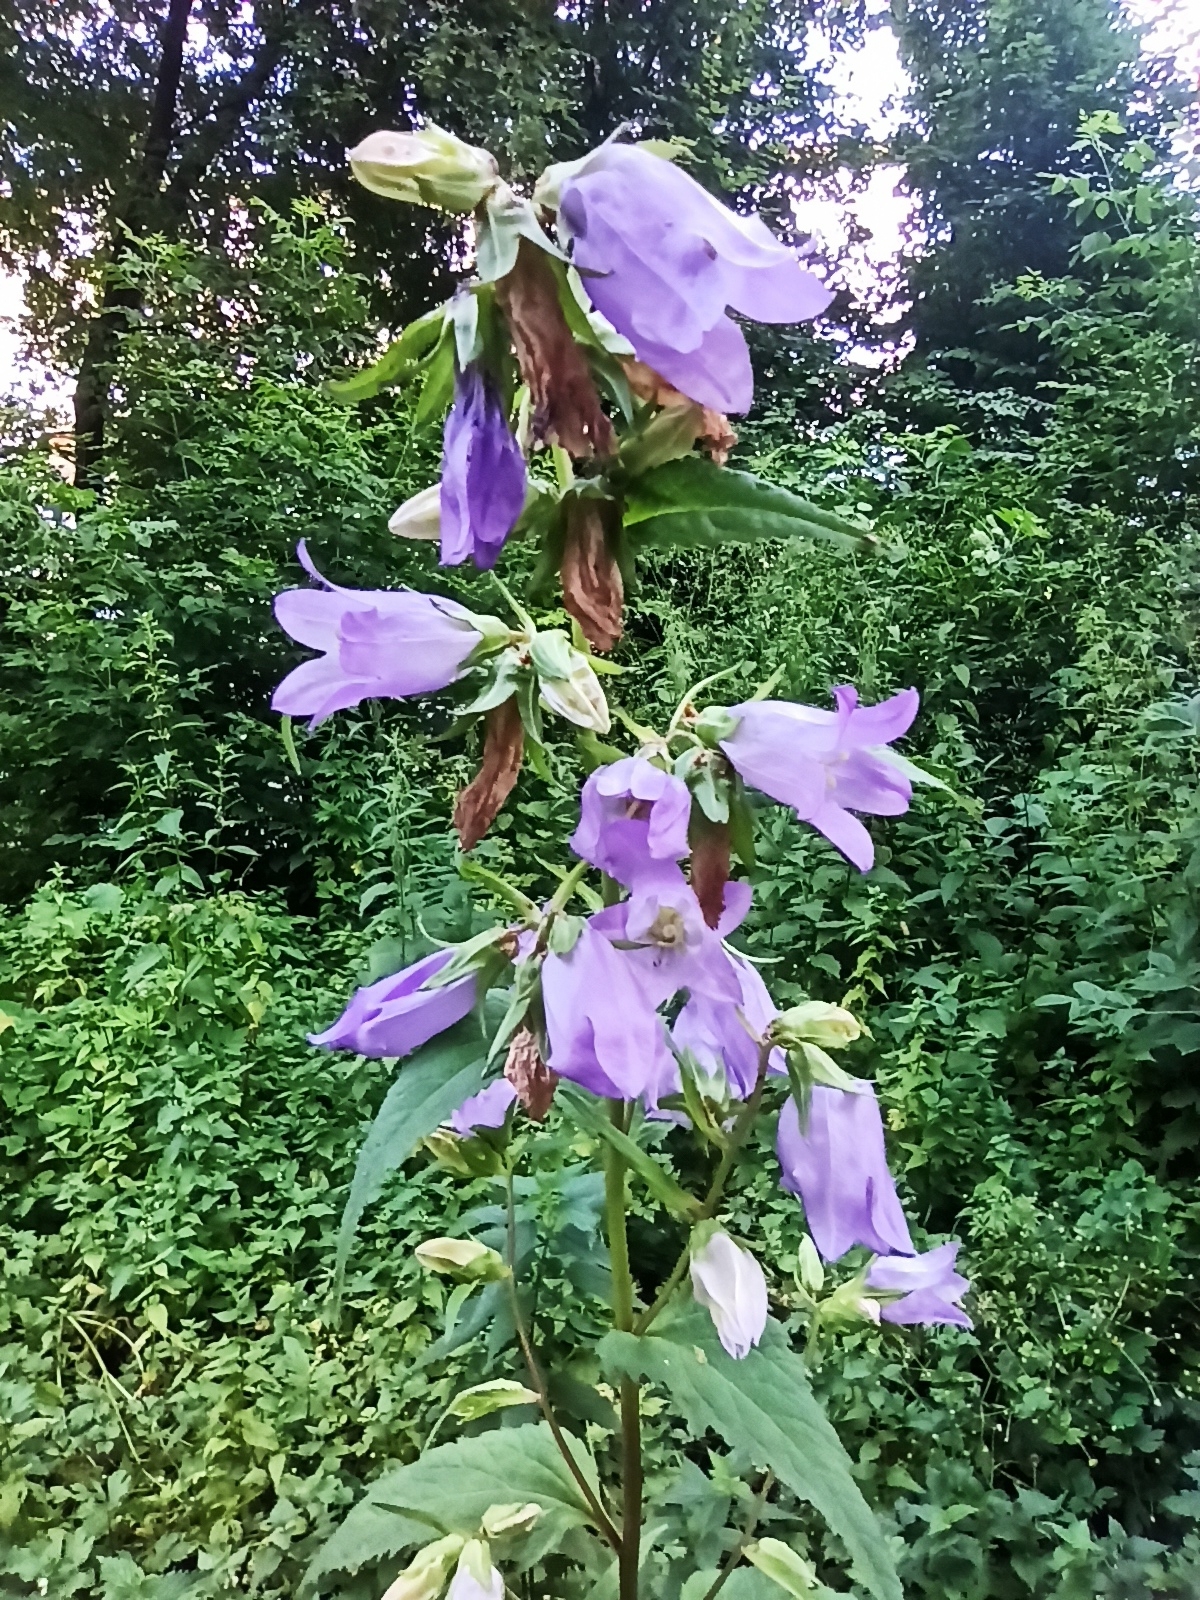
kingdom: Plantae
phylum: Tracheophyta
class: Magnoliopsida
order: Asterales
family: Campanulaceae
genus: Campanula
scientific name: Campanula trachelium
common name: Nettle-leaved bellflower
